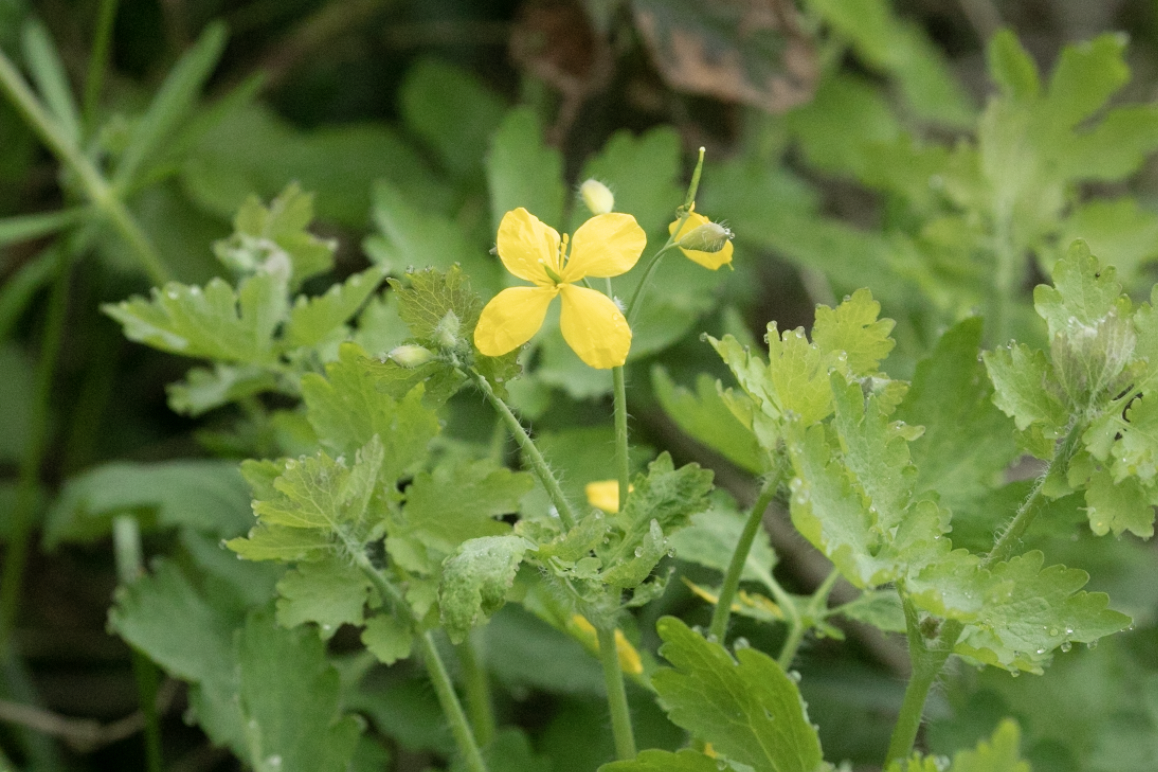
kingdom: Plantae
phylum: Tracheophyta
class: Magnoliopsida
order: Ranunculales
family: Papaveraceae
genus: Chelidonium
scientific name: Chelidonium majus
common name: Greater celandine
